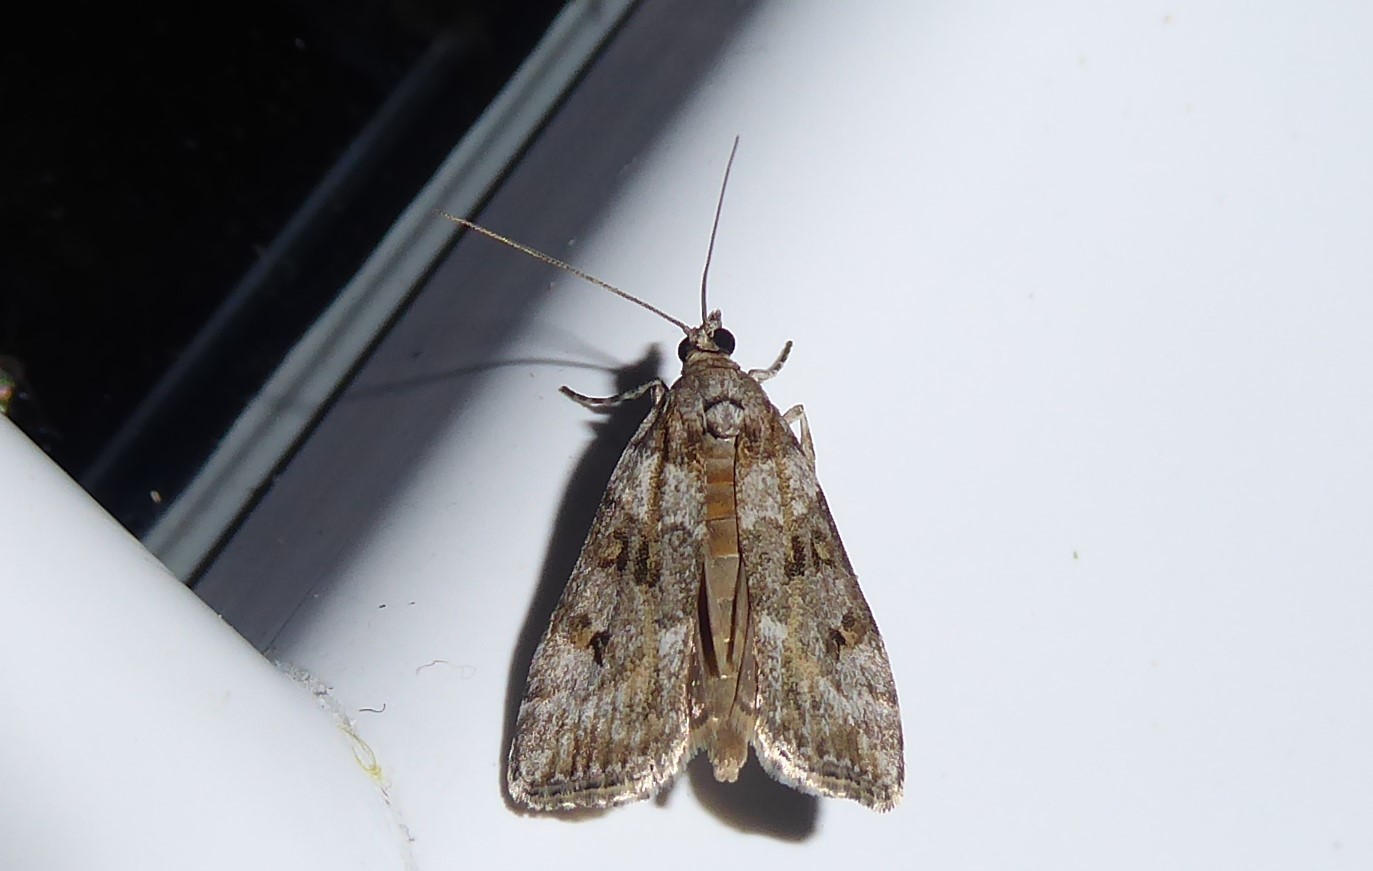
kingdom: Animalia
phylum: Arthropoda
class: Insecta
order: Lepidoptera
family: Crambidae
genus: Eudonia
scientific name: Eudonia diphtheralis
